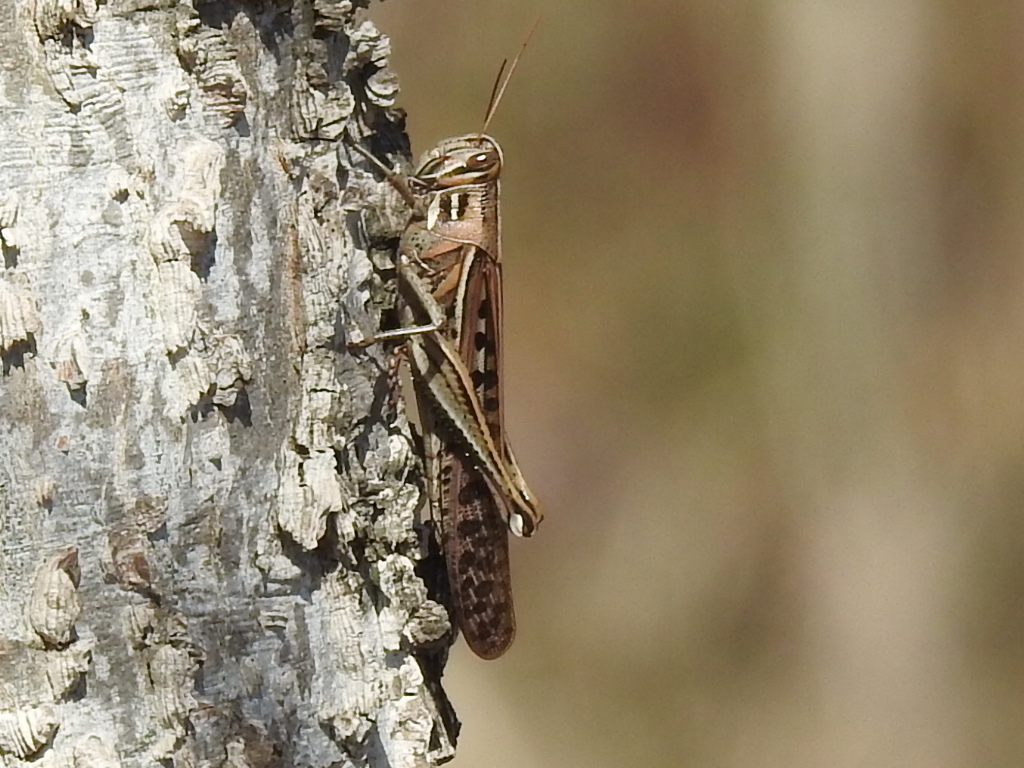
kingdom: Animalia
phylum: Arthropoda
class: Insecta
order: Orthoptera
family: Acrididae
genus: Schistocerca
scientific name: Schistocerca americana
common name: American bird locust
